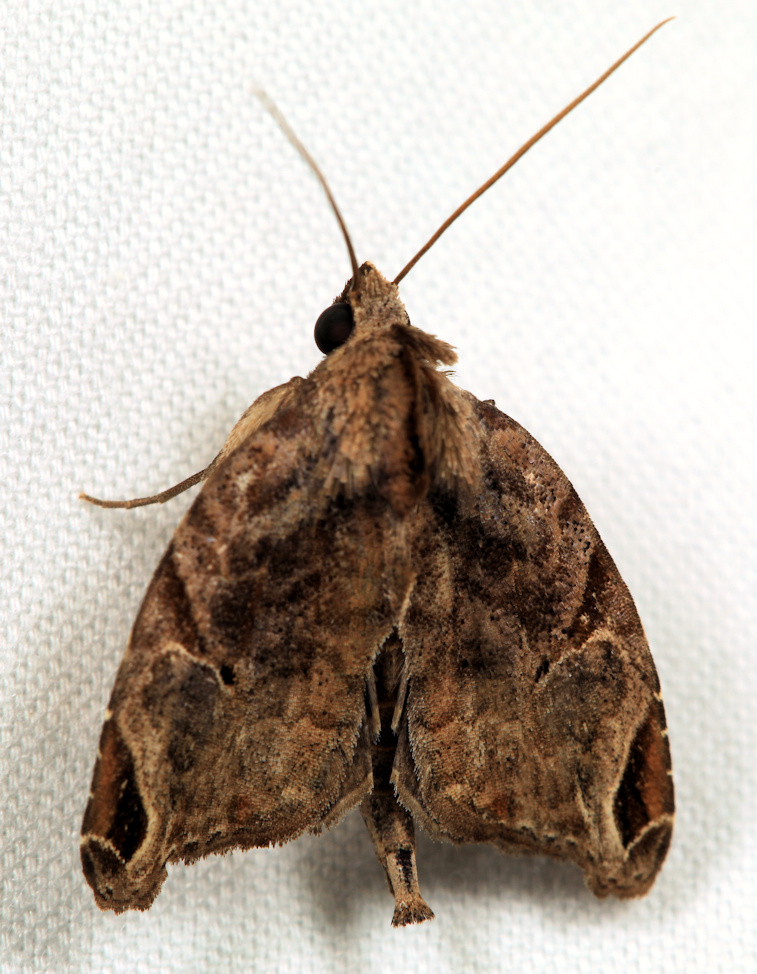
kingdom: Animalia
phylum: Arthropoda
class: Insecta
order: Lepidoptera
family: Noctuidae
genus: Androlymnia
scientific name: Androlymnia torsivena
